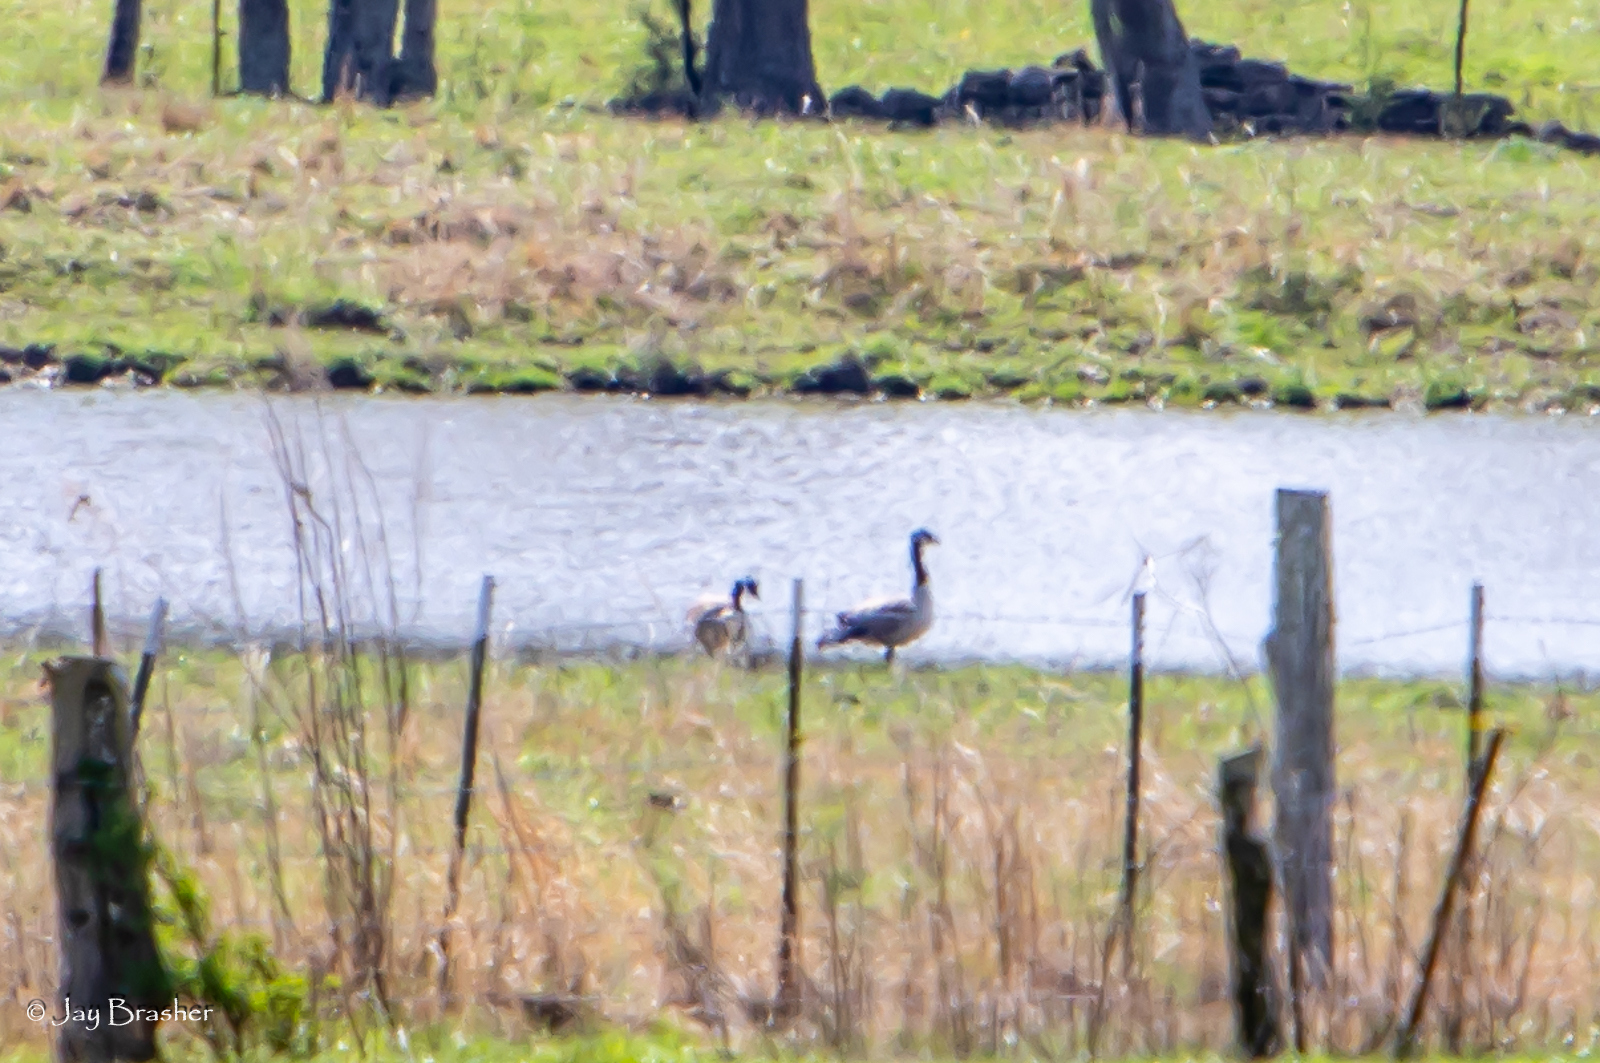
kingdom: Animalia
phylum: Chordata
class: Aves
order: Anseriformes
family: Anatidae
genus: Branta
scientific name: Branta canadensis
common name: Canada goose
